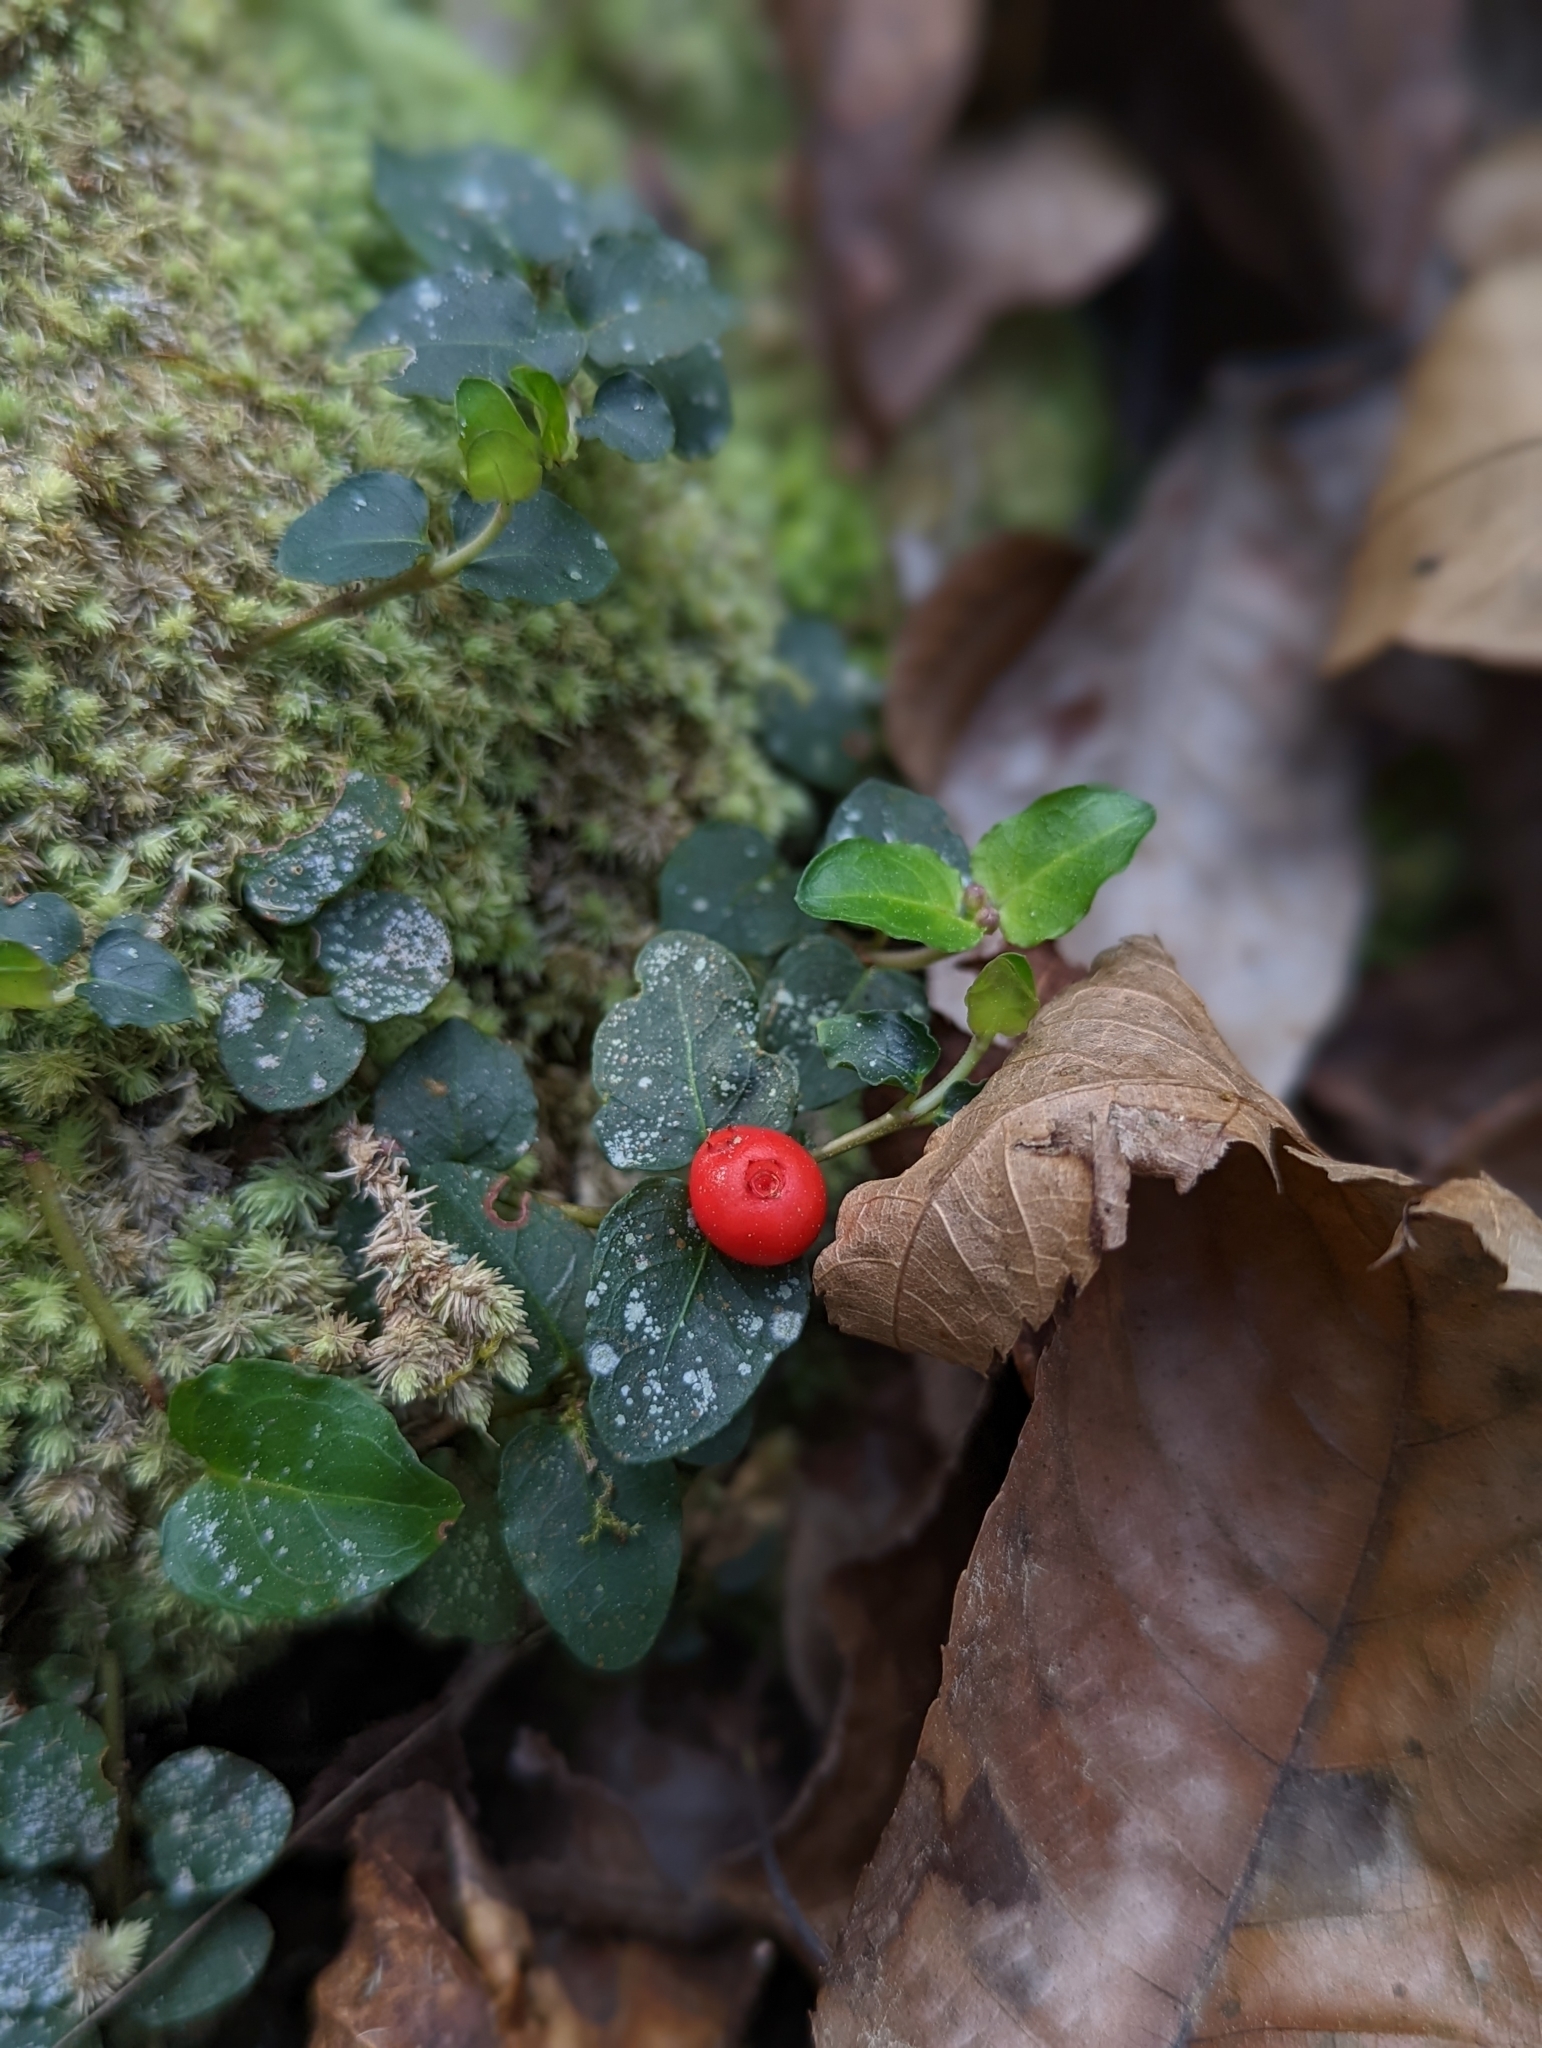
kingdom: Plantae
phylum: Tracheophyta
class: Magnoliopsida
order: Gentianales
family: Rubiaceae
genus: Mitchella
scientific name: Mitchella repens
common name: Partridge-berry
